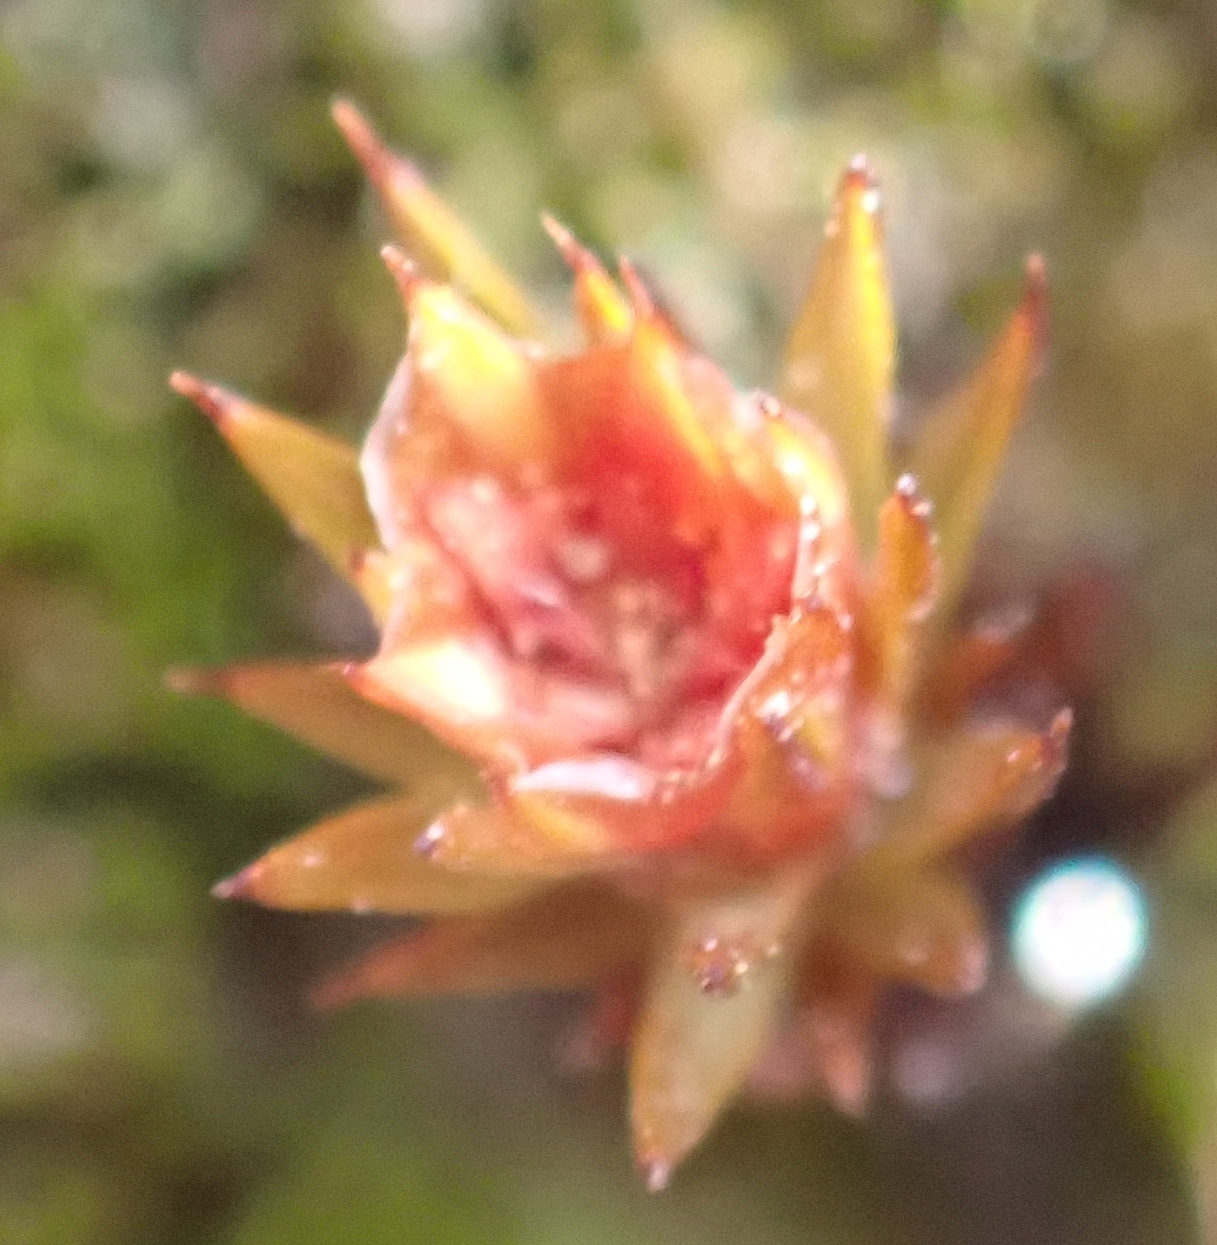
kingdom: Plantae
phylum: Bryophyta
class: Polytrichopsida
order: Polytrichales
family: Polytrichaceae
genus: Polytrichum
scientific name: Polytrichum juniperinum
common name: Juniper haircap moss
